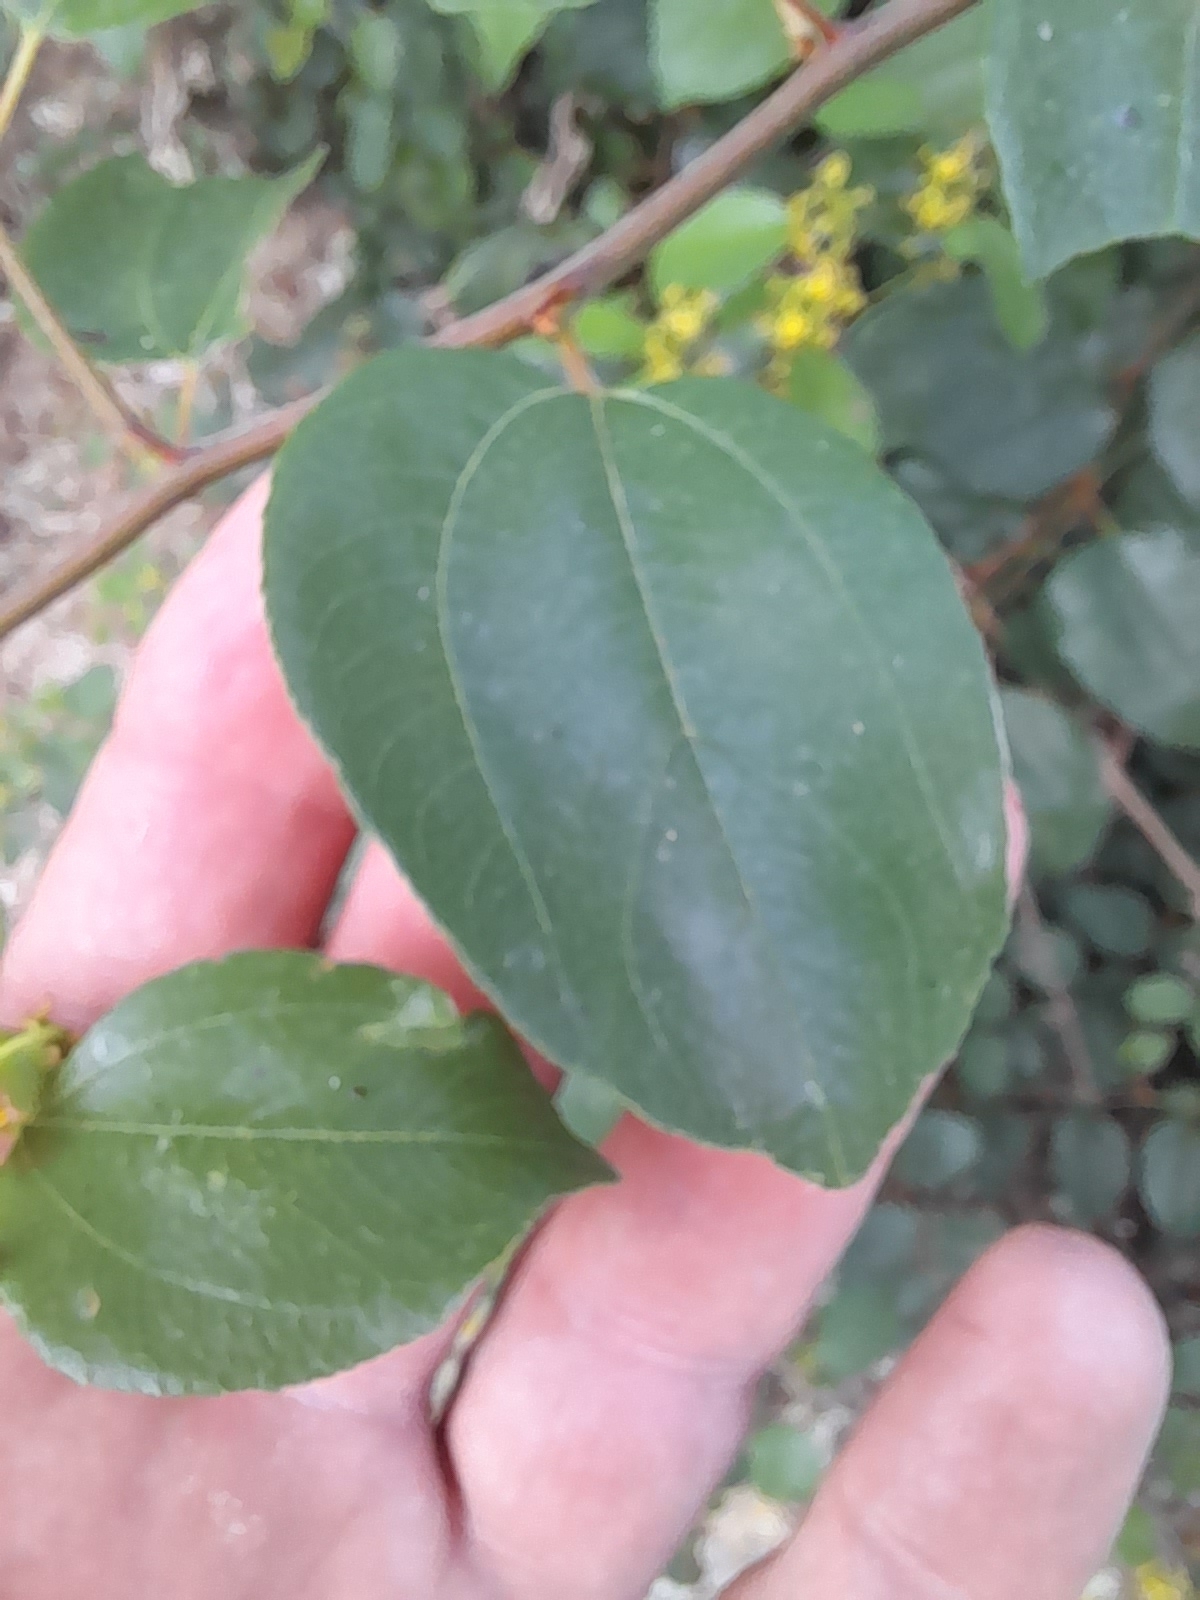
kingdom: Plantae
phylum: Tracheophyta
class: Magnoliopsida
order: Rosales
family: Rhamnaceae
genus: Paliurus
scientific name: Paliurus spina-christi
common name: Jeruselem thorn
